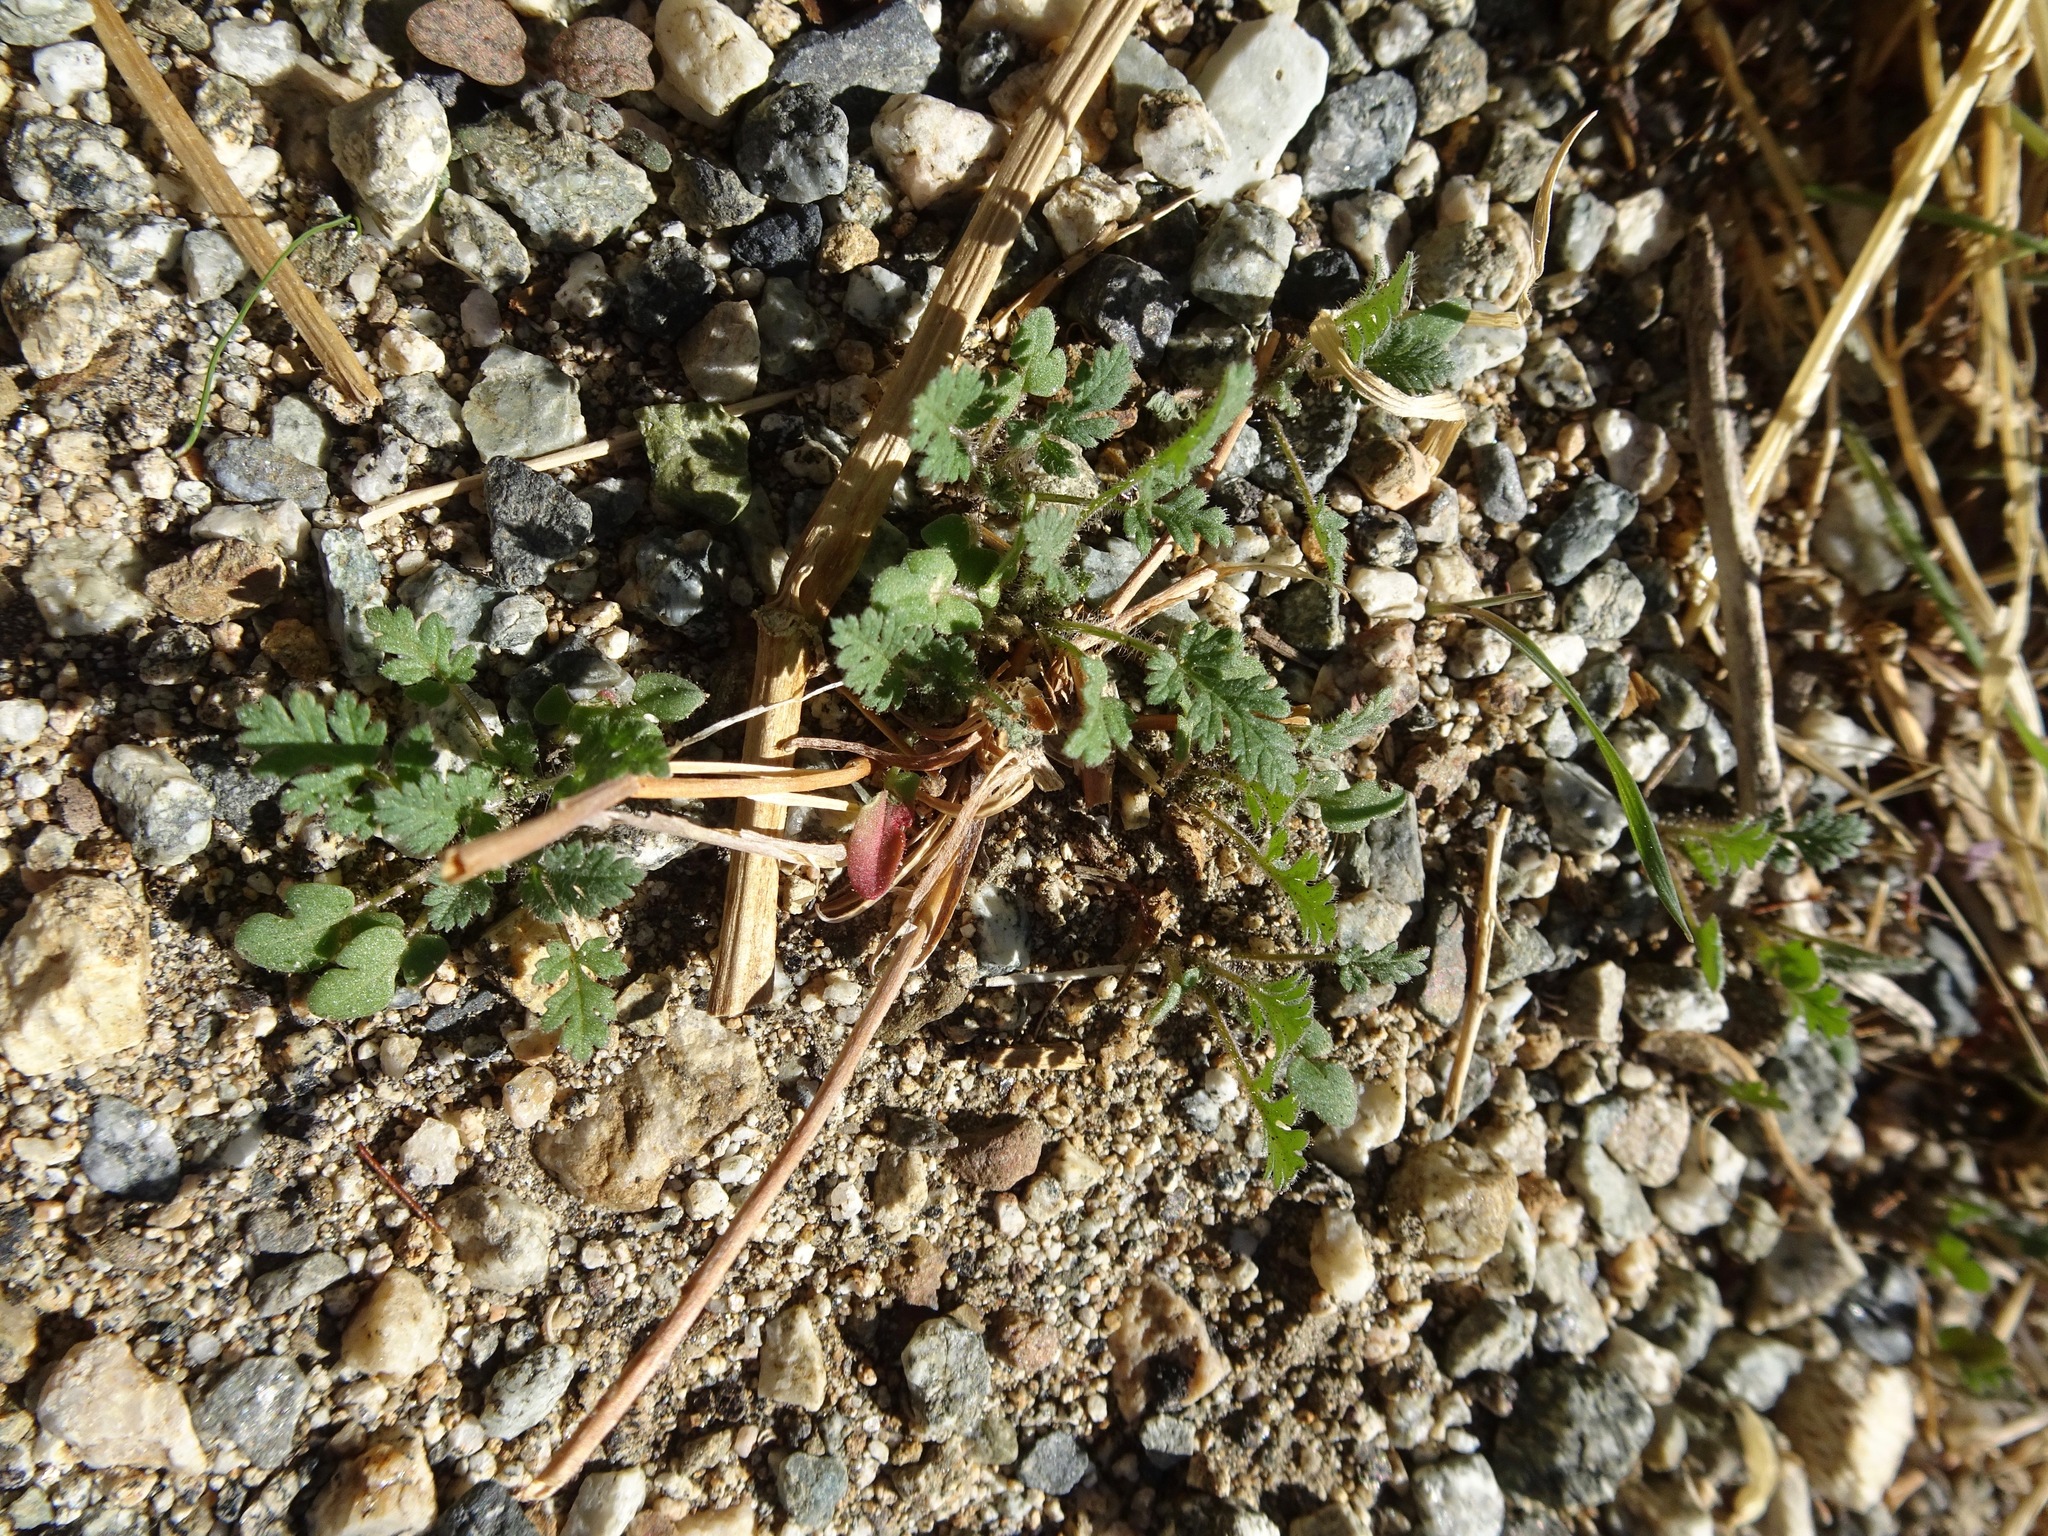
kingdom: Plantae
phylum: Tracheophyta
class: Magnoliopsida
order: Geraniales
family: Geraniaceae
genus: Erodium
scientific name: Erodium cicutarium
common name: Common stork's-bill
